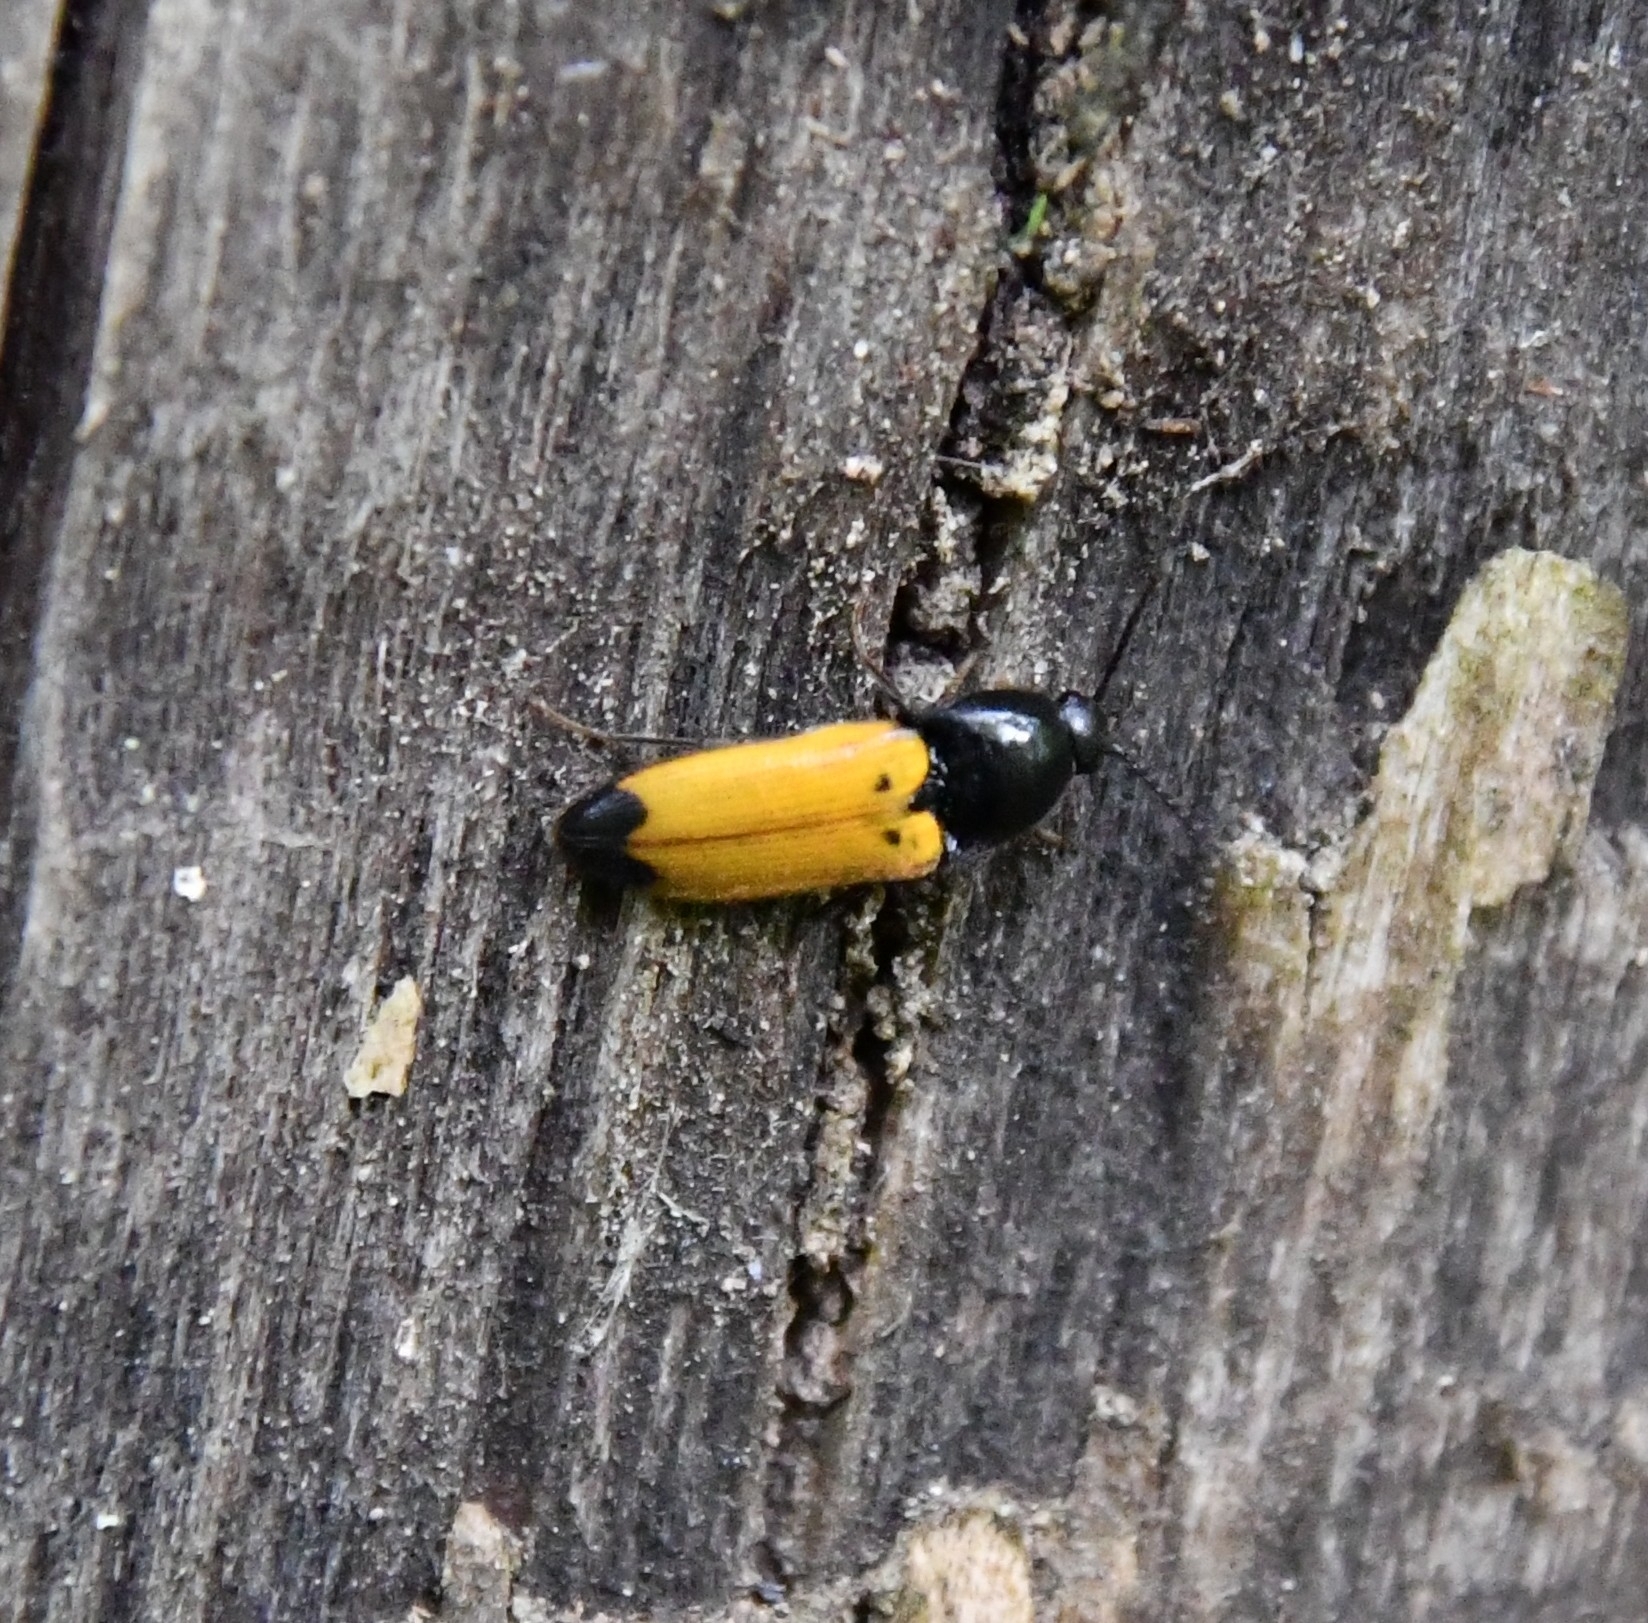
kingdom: Animalia
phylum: Arthropoda
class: Insecta
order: Coleoptera
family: Elateridae
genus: Ampedus
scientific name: Ampedus elegantulus
